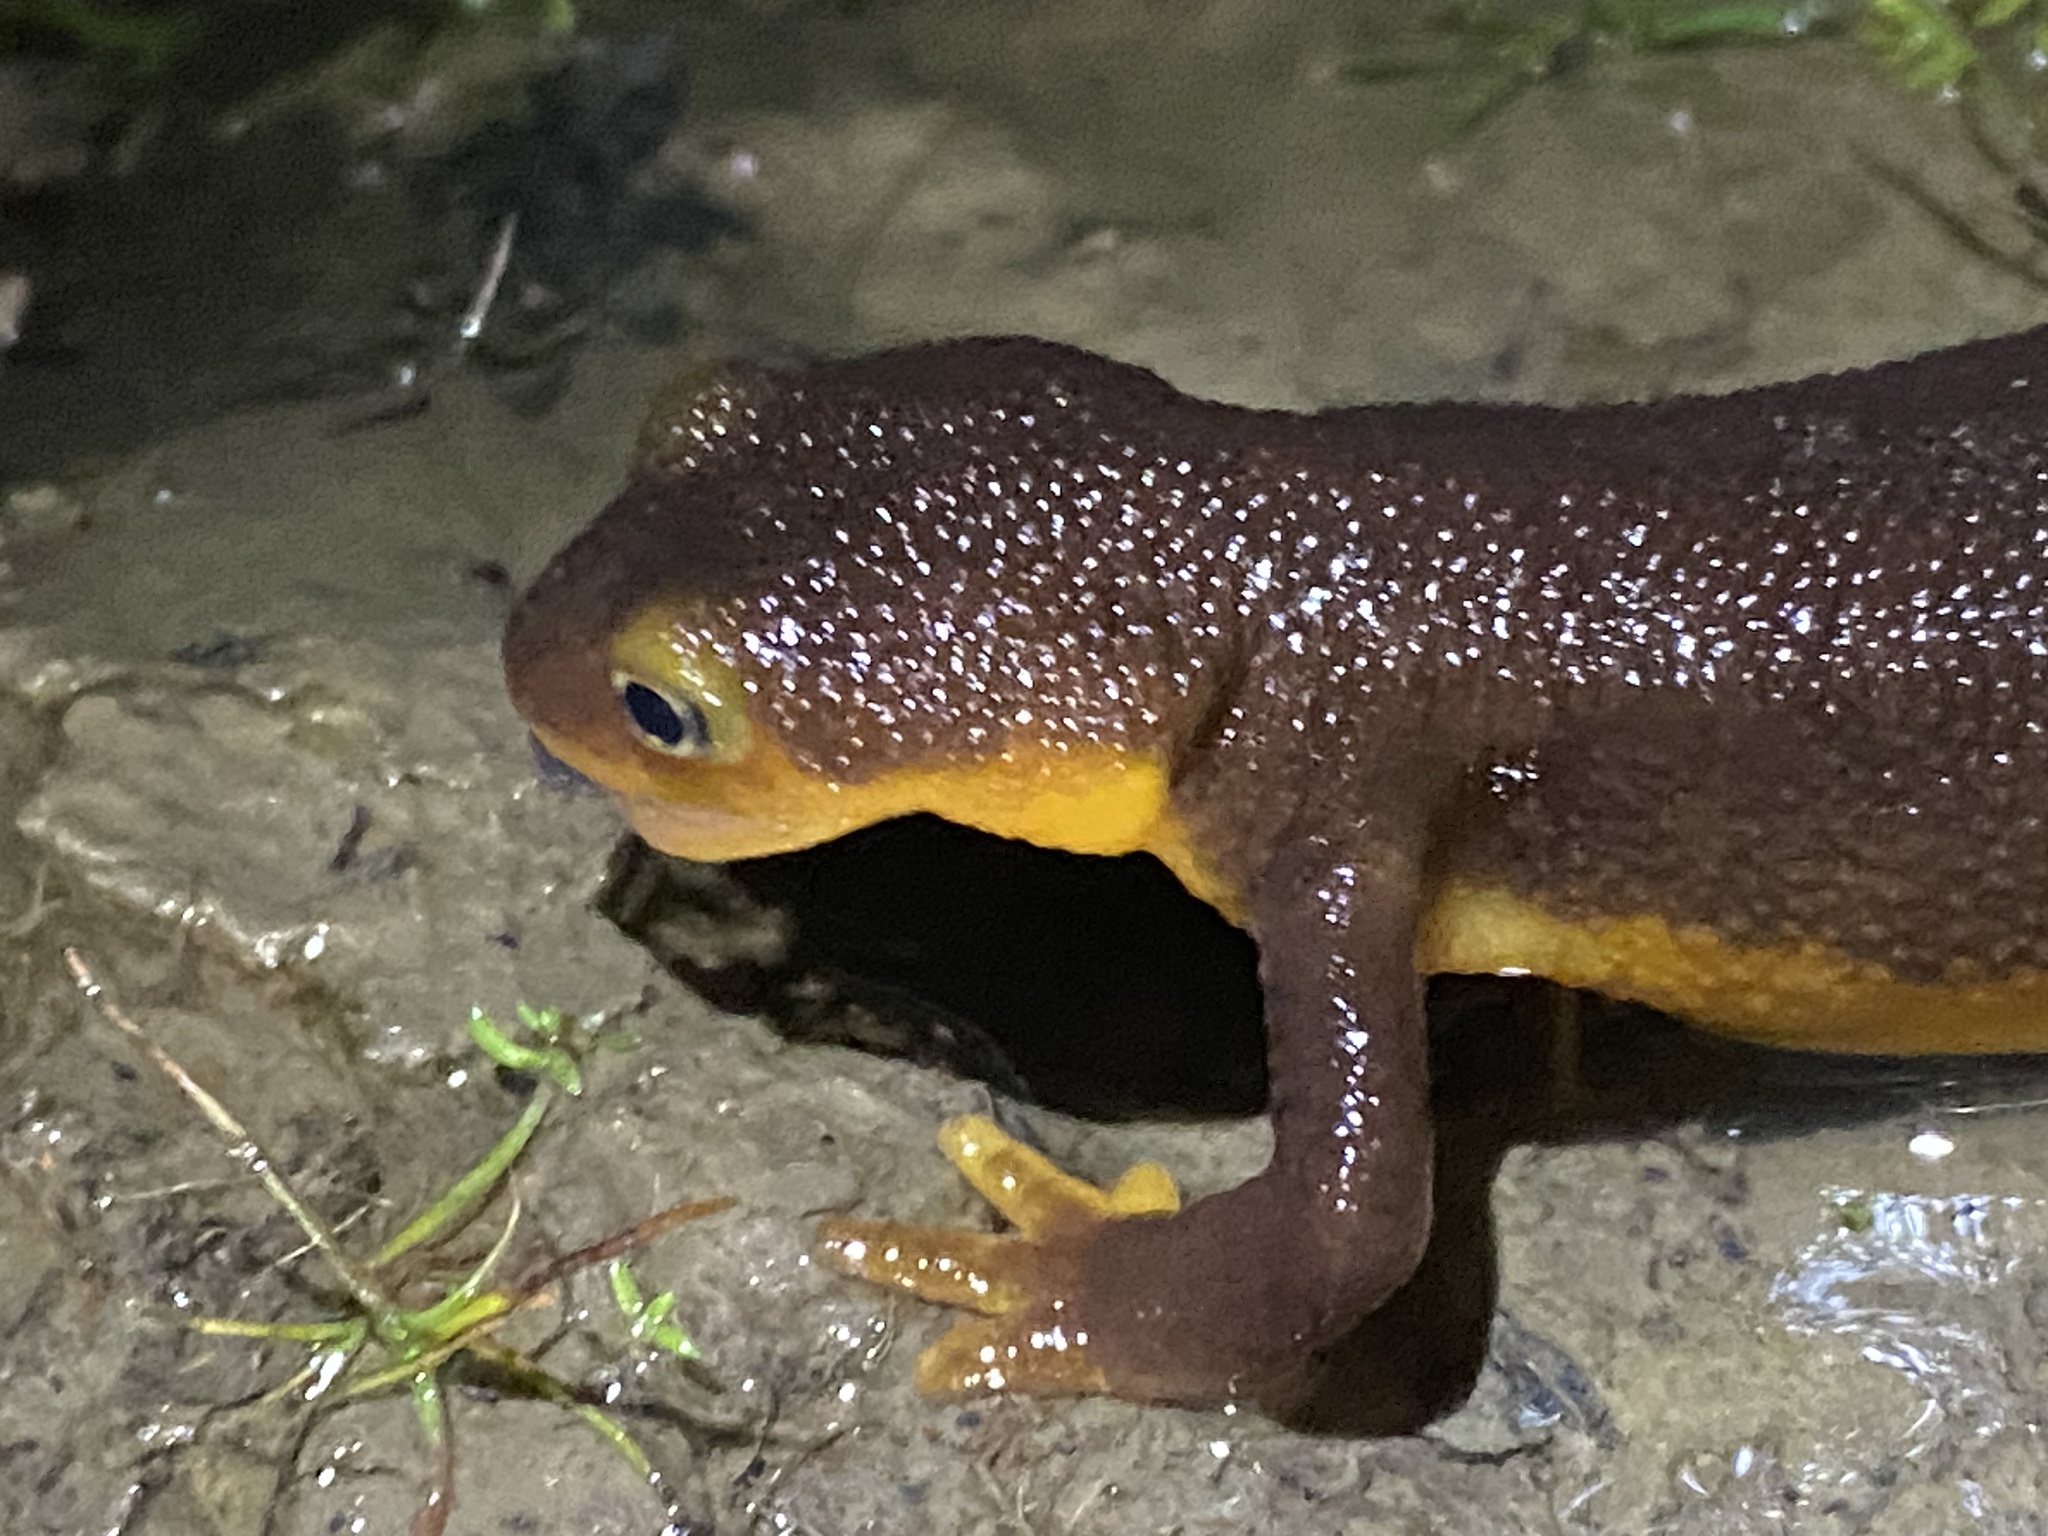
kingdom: Animalia
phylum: Chordata
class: Amphibia
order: Caudata
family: Salamandridae
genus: Taricha
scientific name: Taricha torosa
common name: California newt
